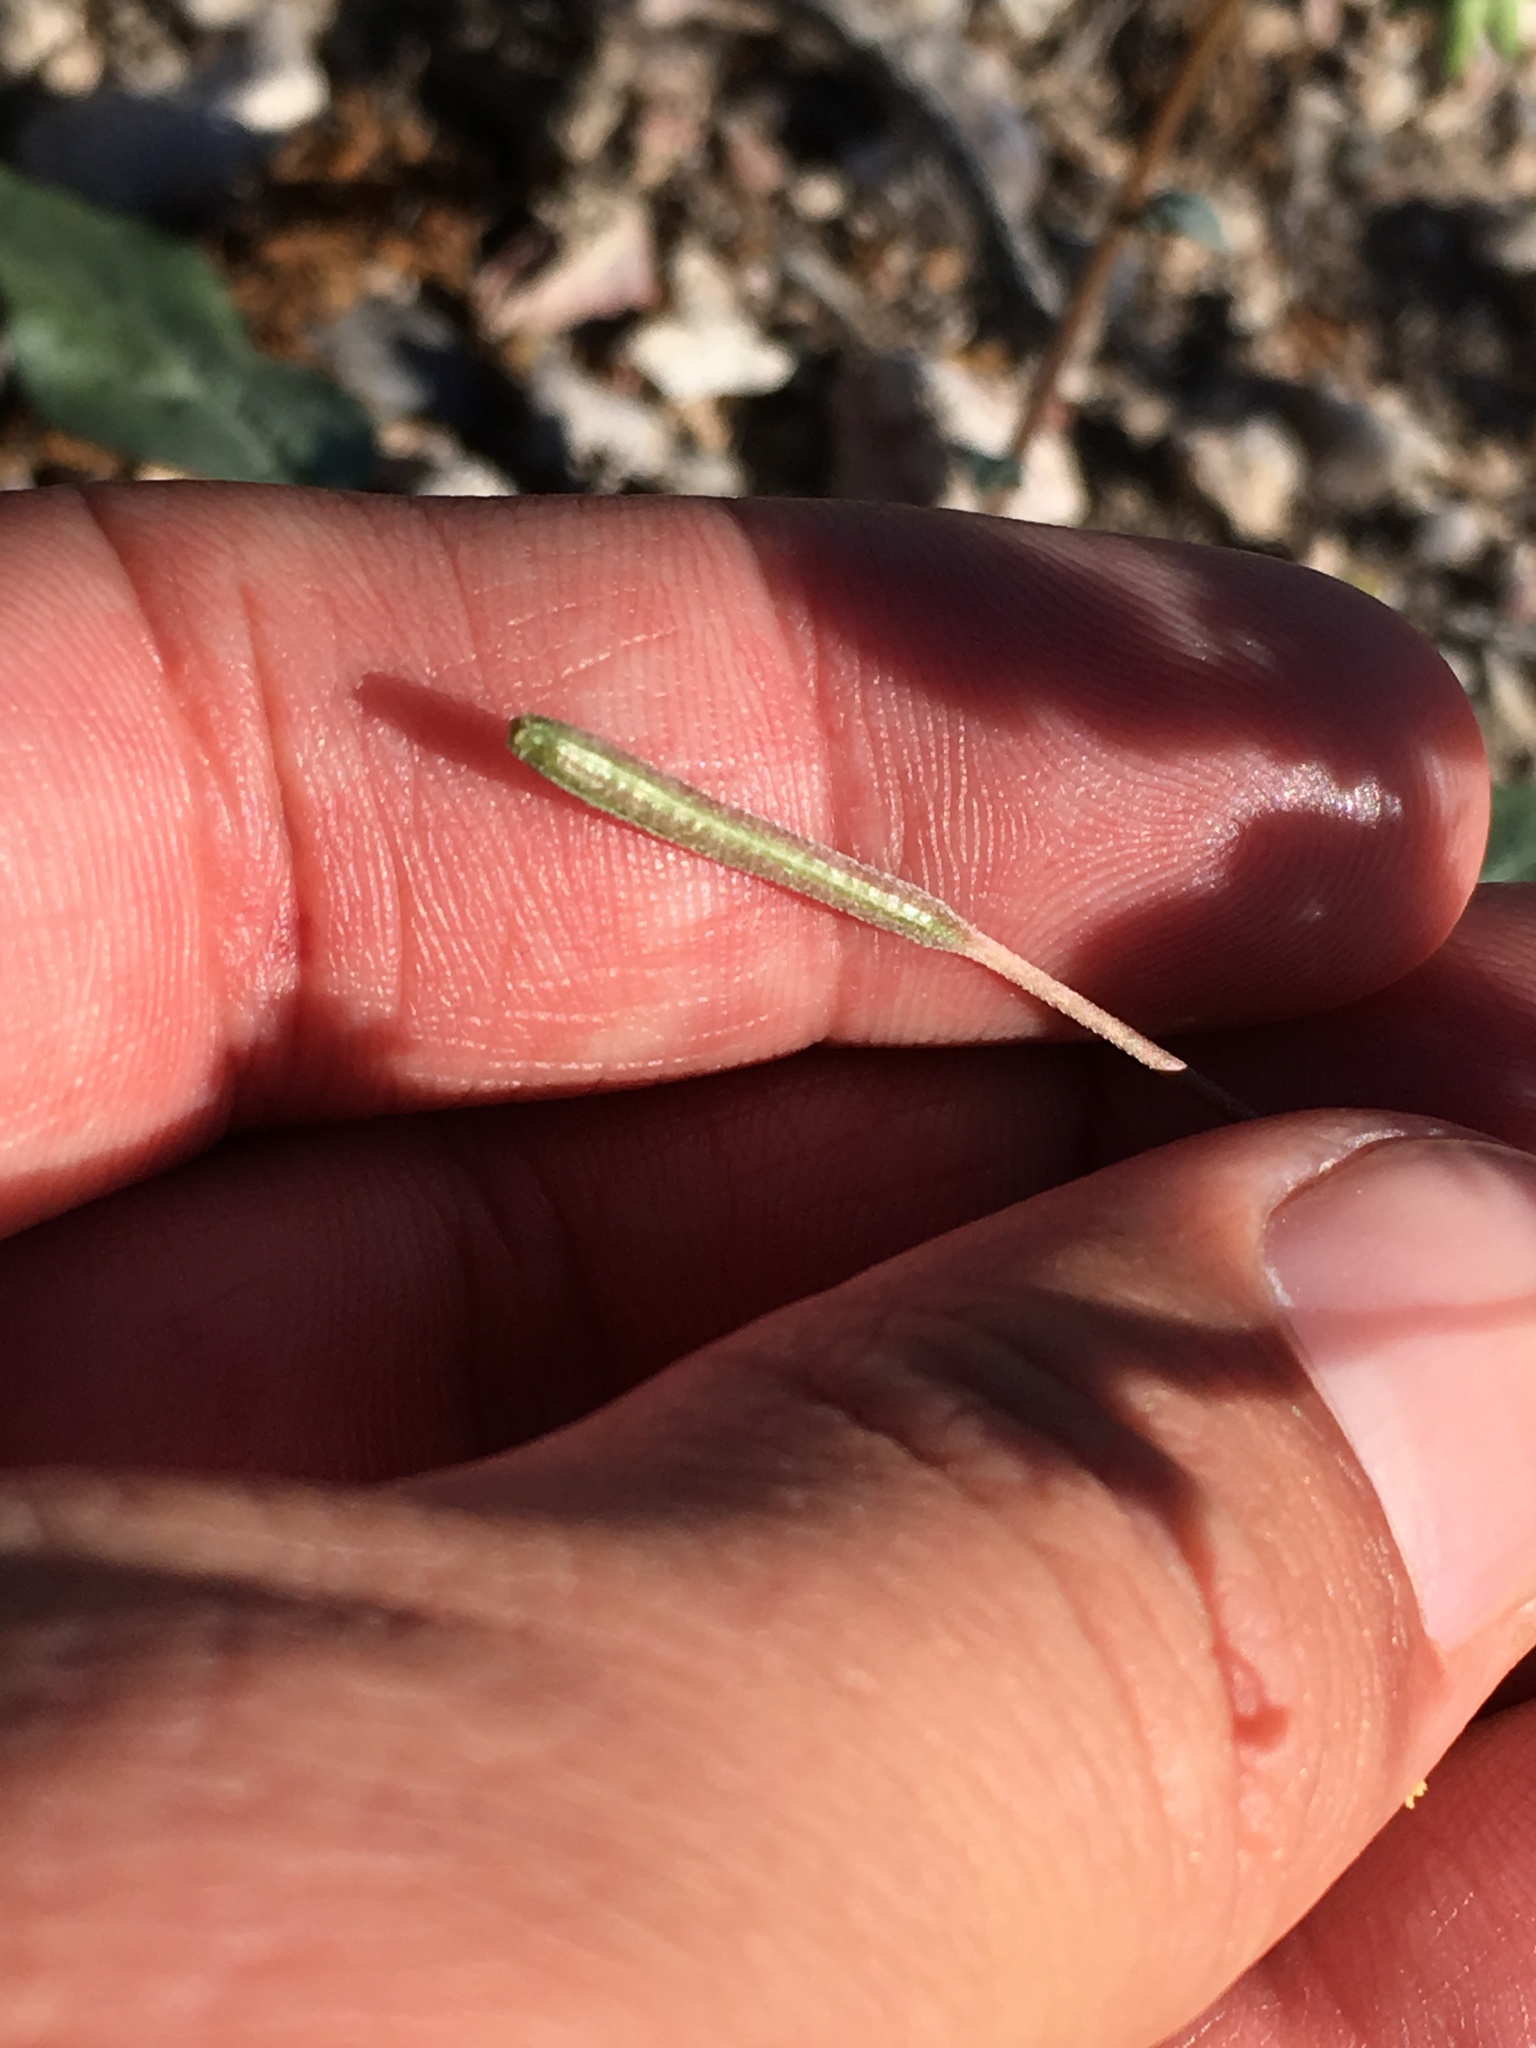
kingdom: Plantae
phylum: Tracheophyta
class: Magnoliopsida
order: Myrtales
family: Onagraceae
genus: Chylismia
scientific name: Chylismia claviformis
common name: Browneyes
